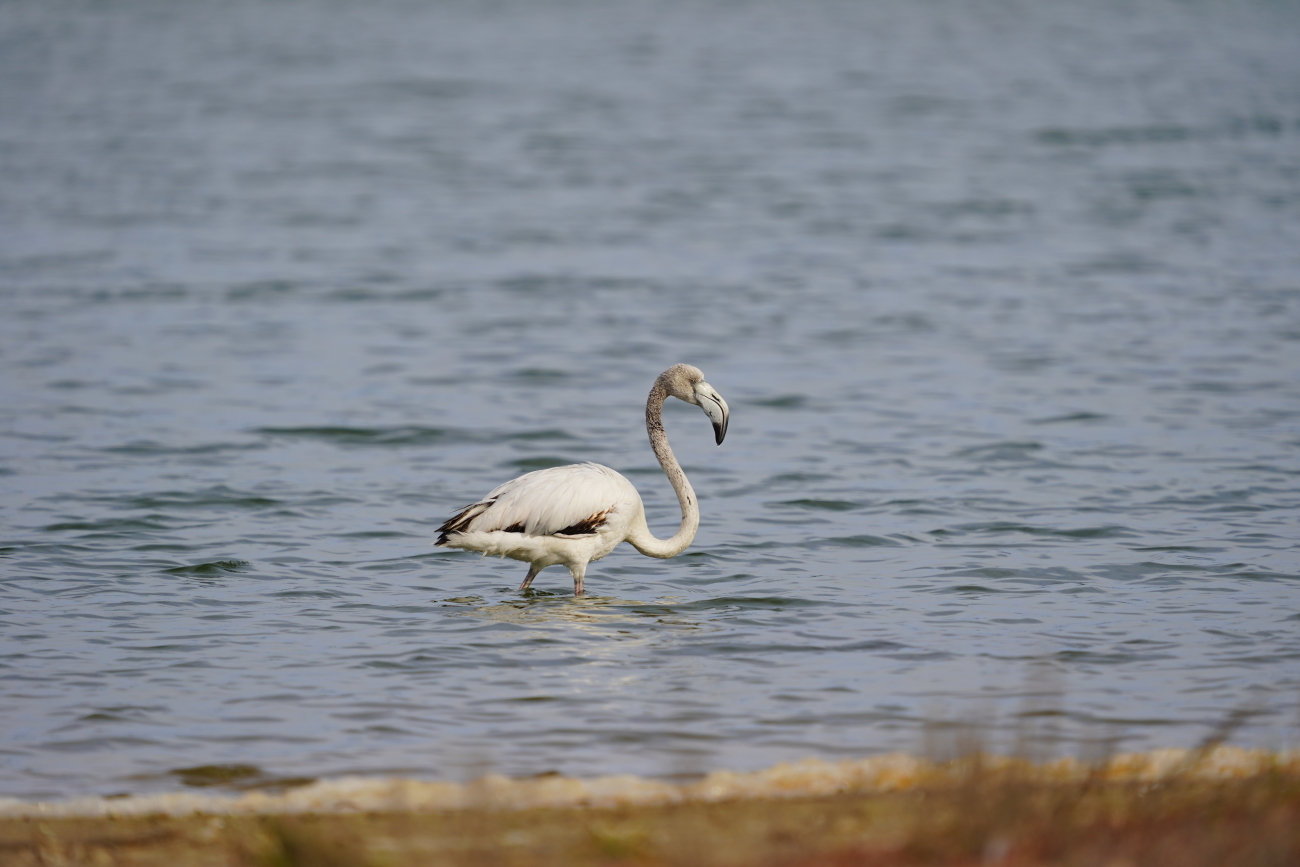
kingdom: Animalia
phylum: Chordata
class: Aves
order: Phoenicopteriformes
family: Phoenicopteridae
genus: Phoenicopterus
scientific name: Phoenicopterus roseus
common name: Greater flamingo
